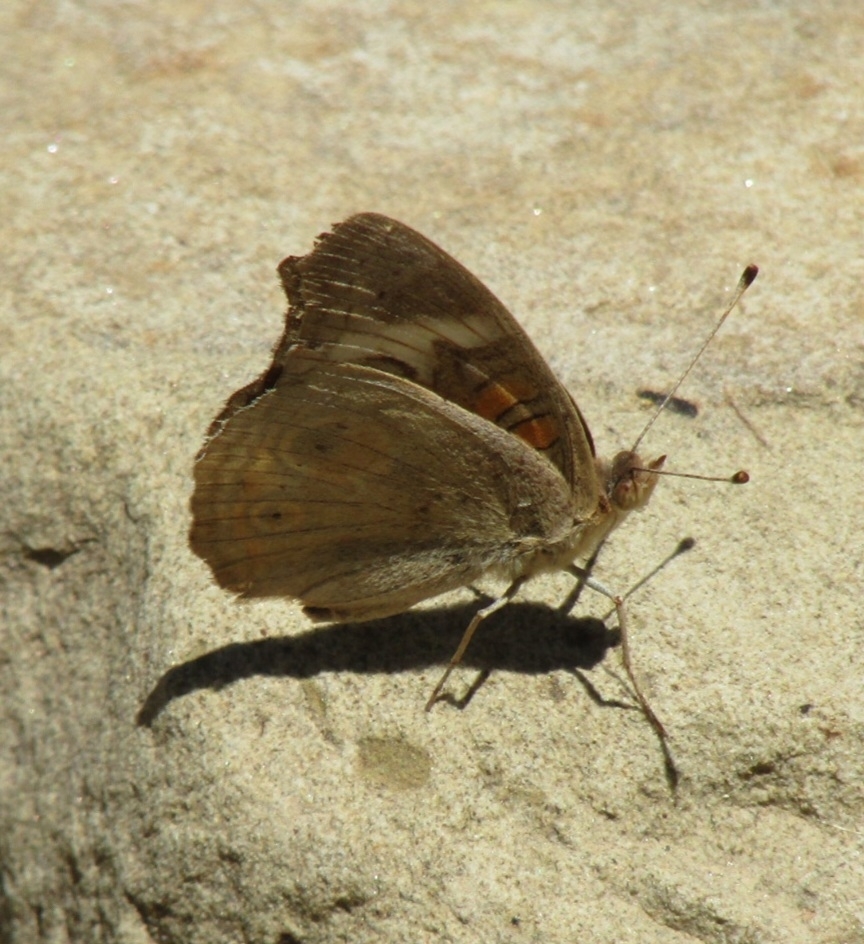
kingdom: Animalia
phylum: Arthropoda
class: Insecta
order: Lepidoptera
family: Nymphalidae
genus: Junonia
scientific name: Junonia grisea
